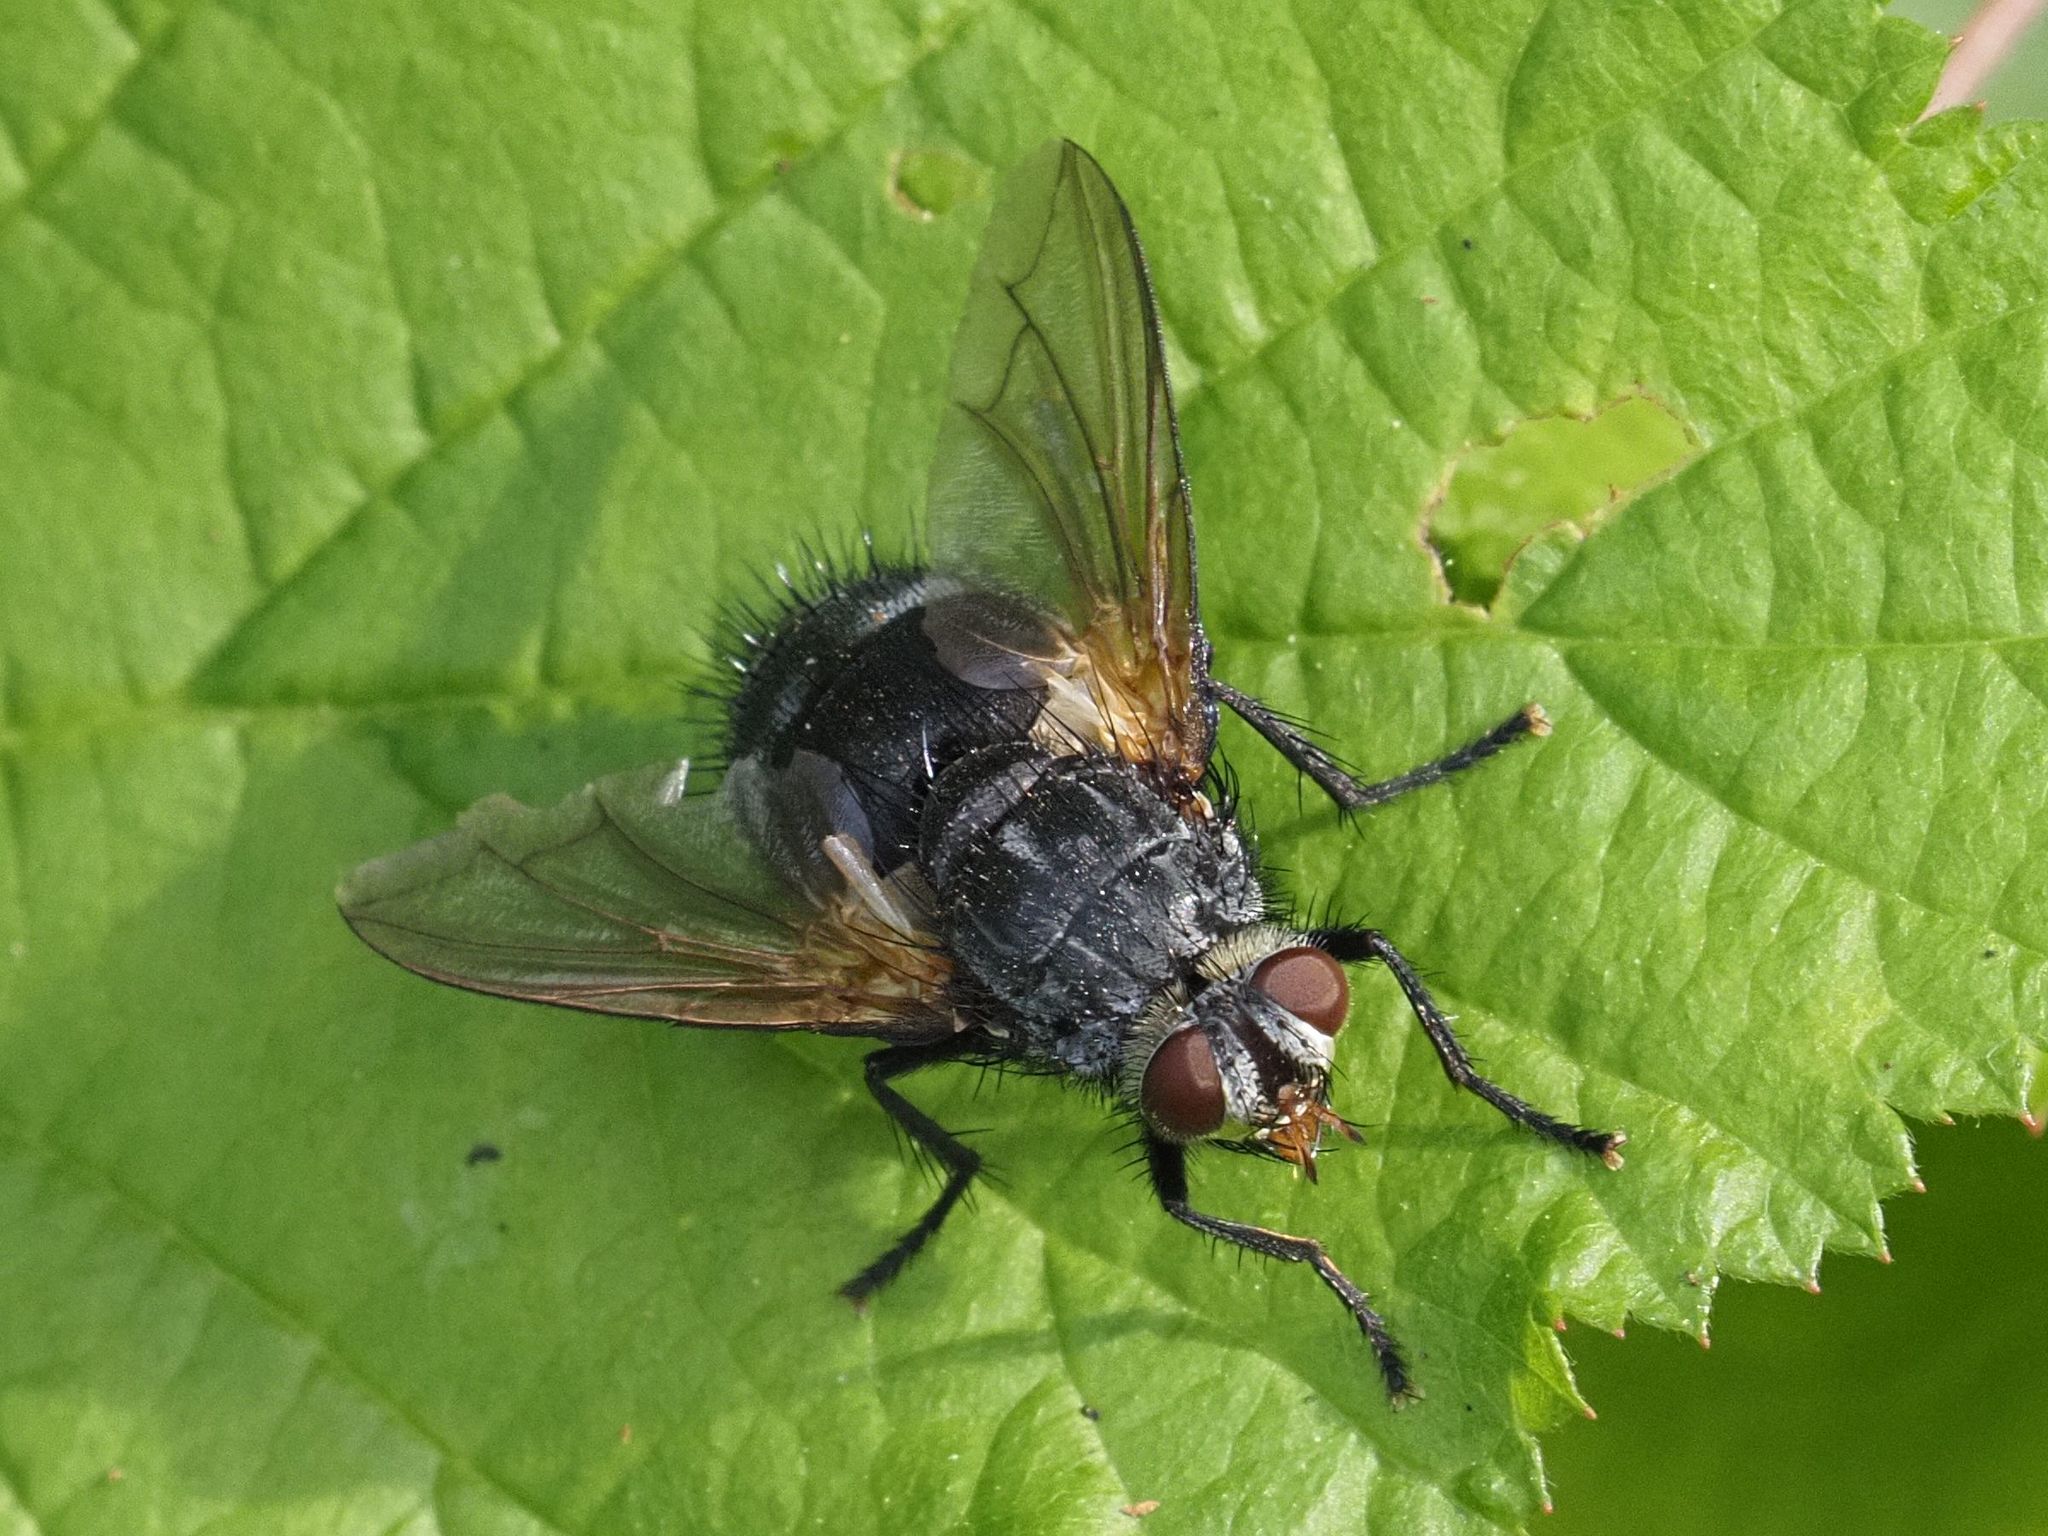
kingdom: Animalia
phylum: Arthropoda
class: Insecta
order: Diptera
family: Tachinidae
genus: Nemoraea
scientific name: Nemoraea pellucida
